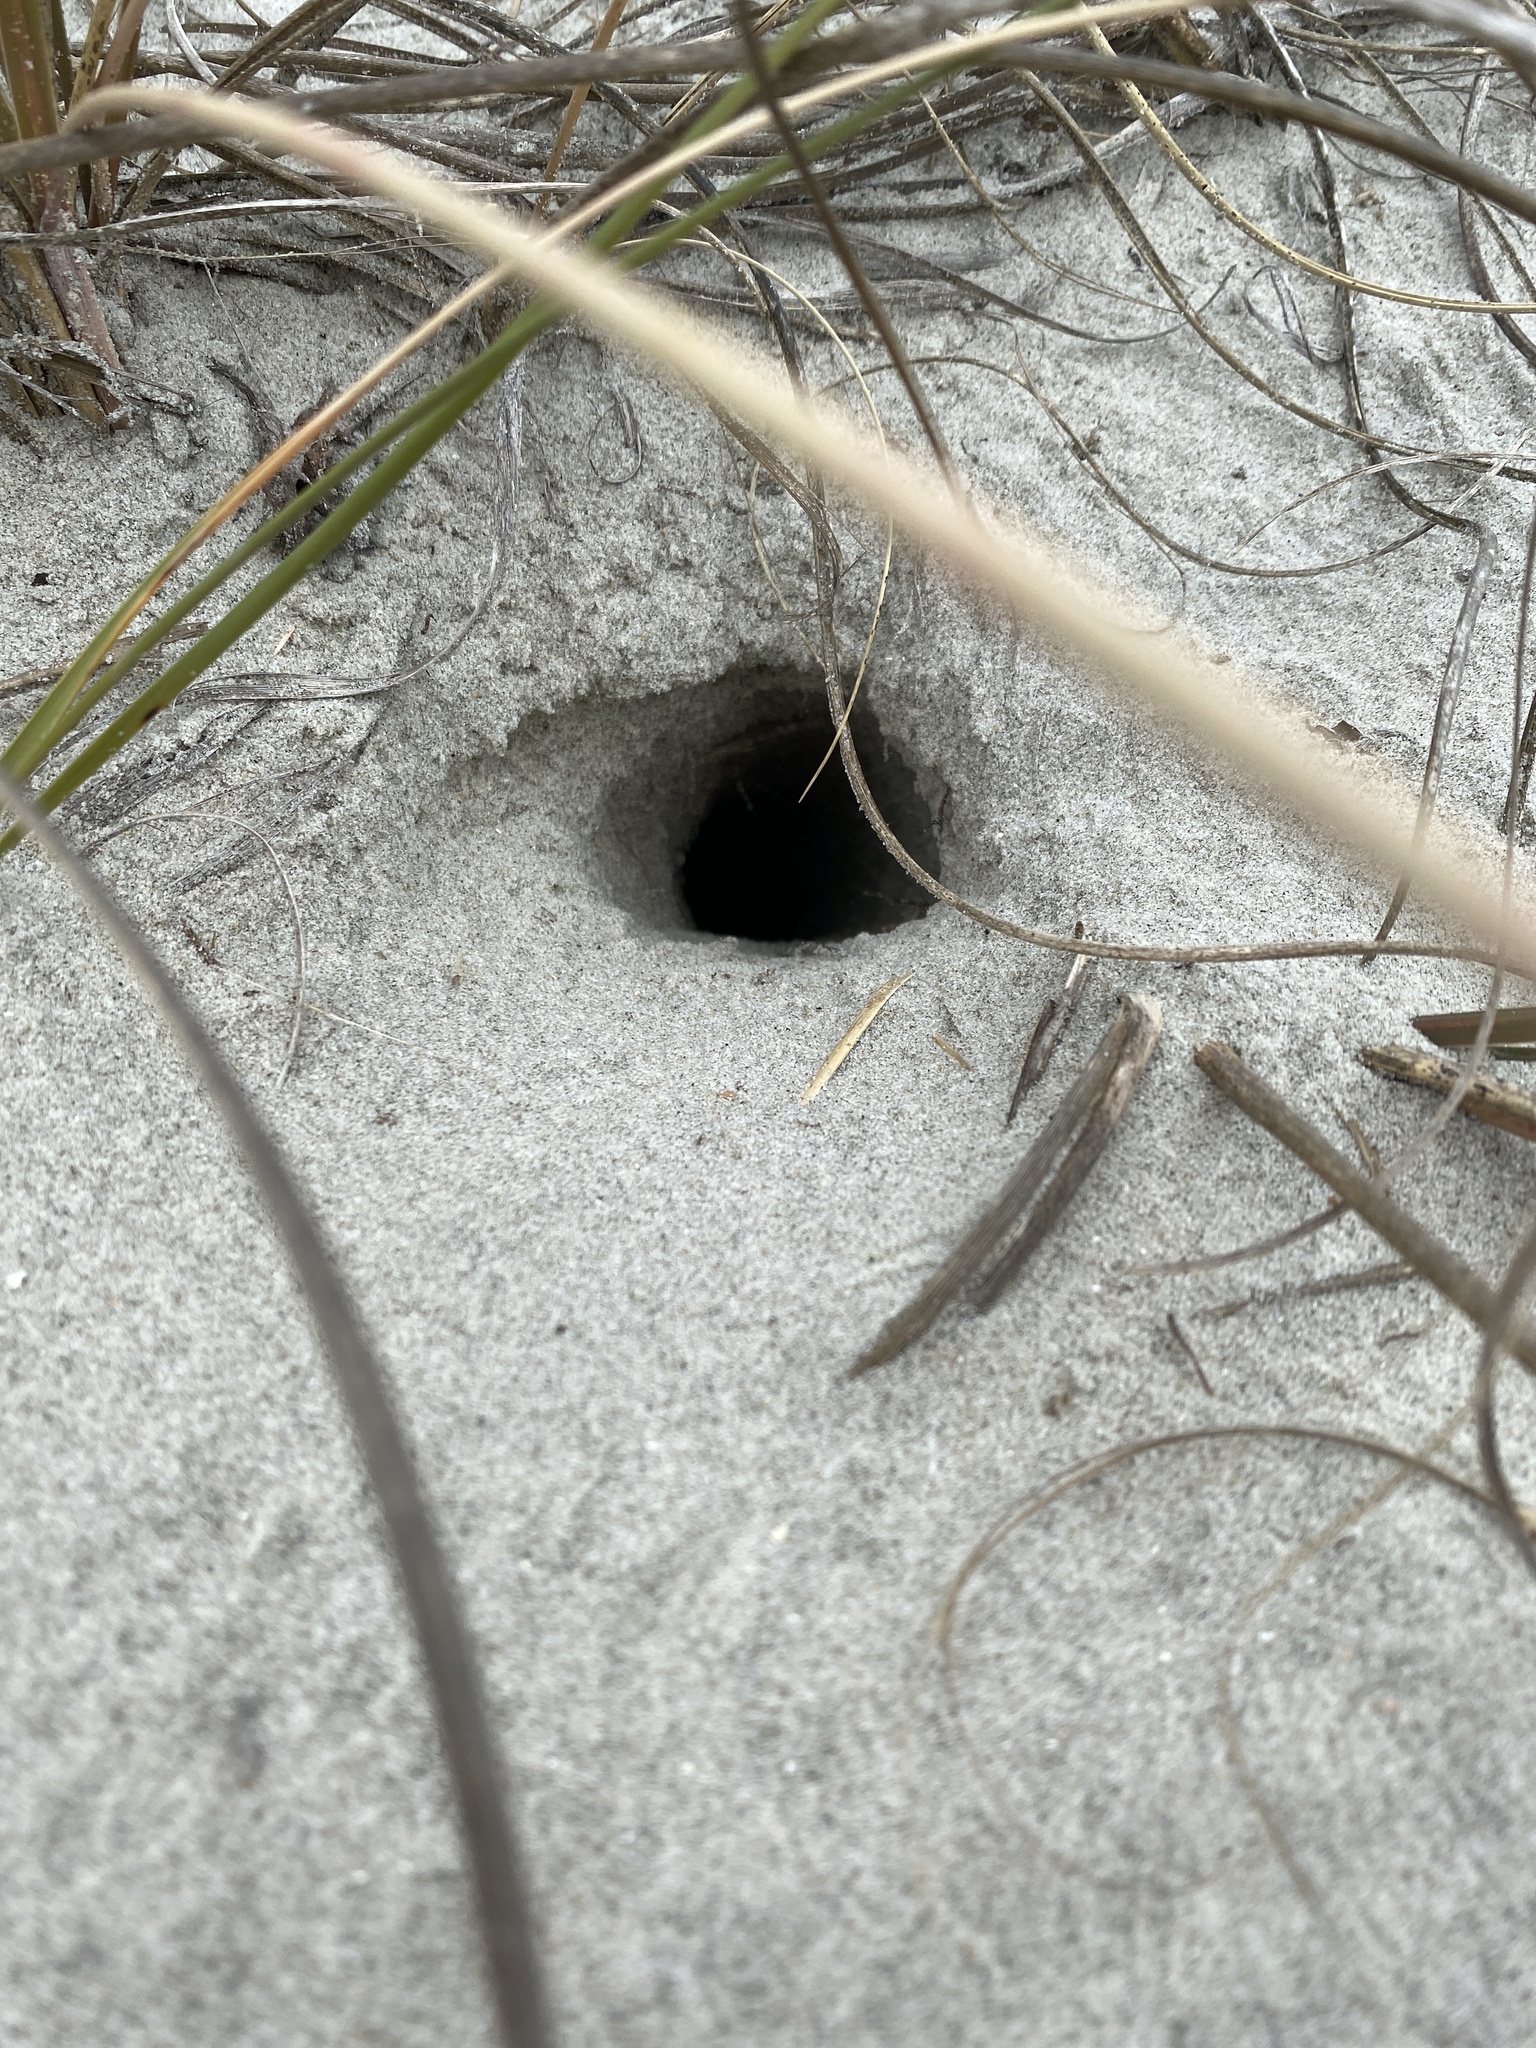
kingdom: Animalia
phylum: Arthropoda
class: Malacostraca
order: Decapoda
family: Ocypodidae
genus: Ocypode
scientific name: Ocypode quadrata
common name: Ghost crab
